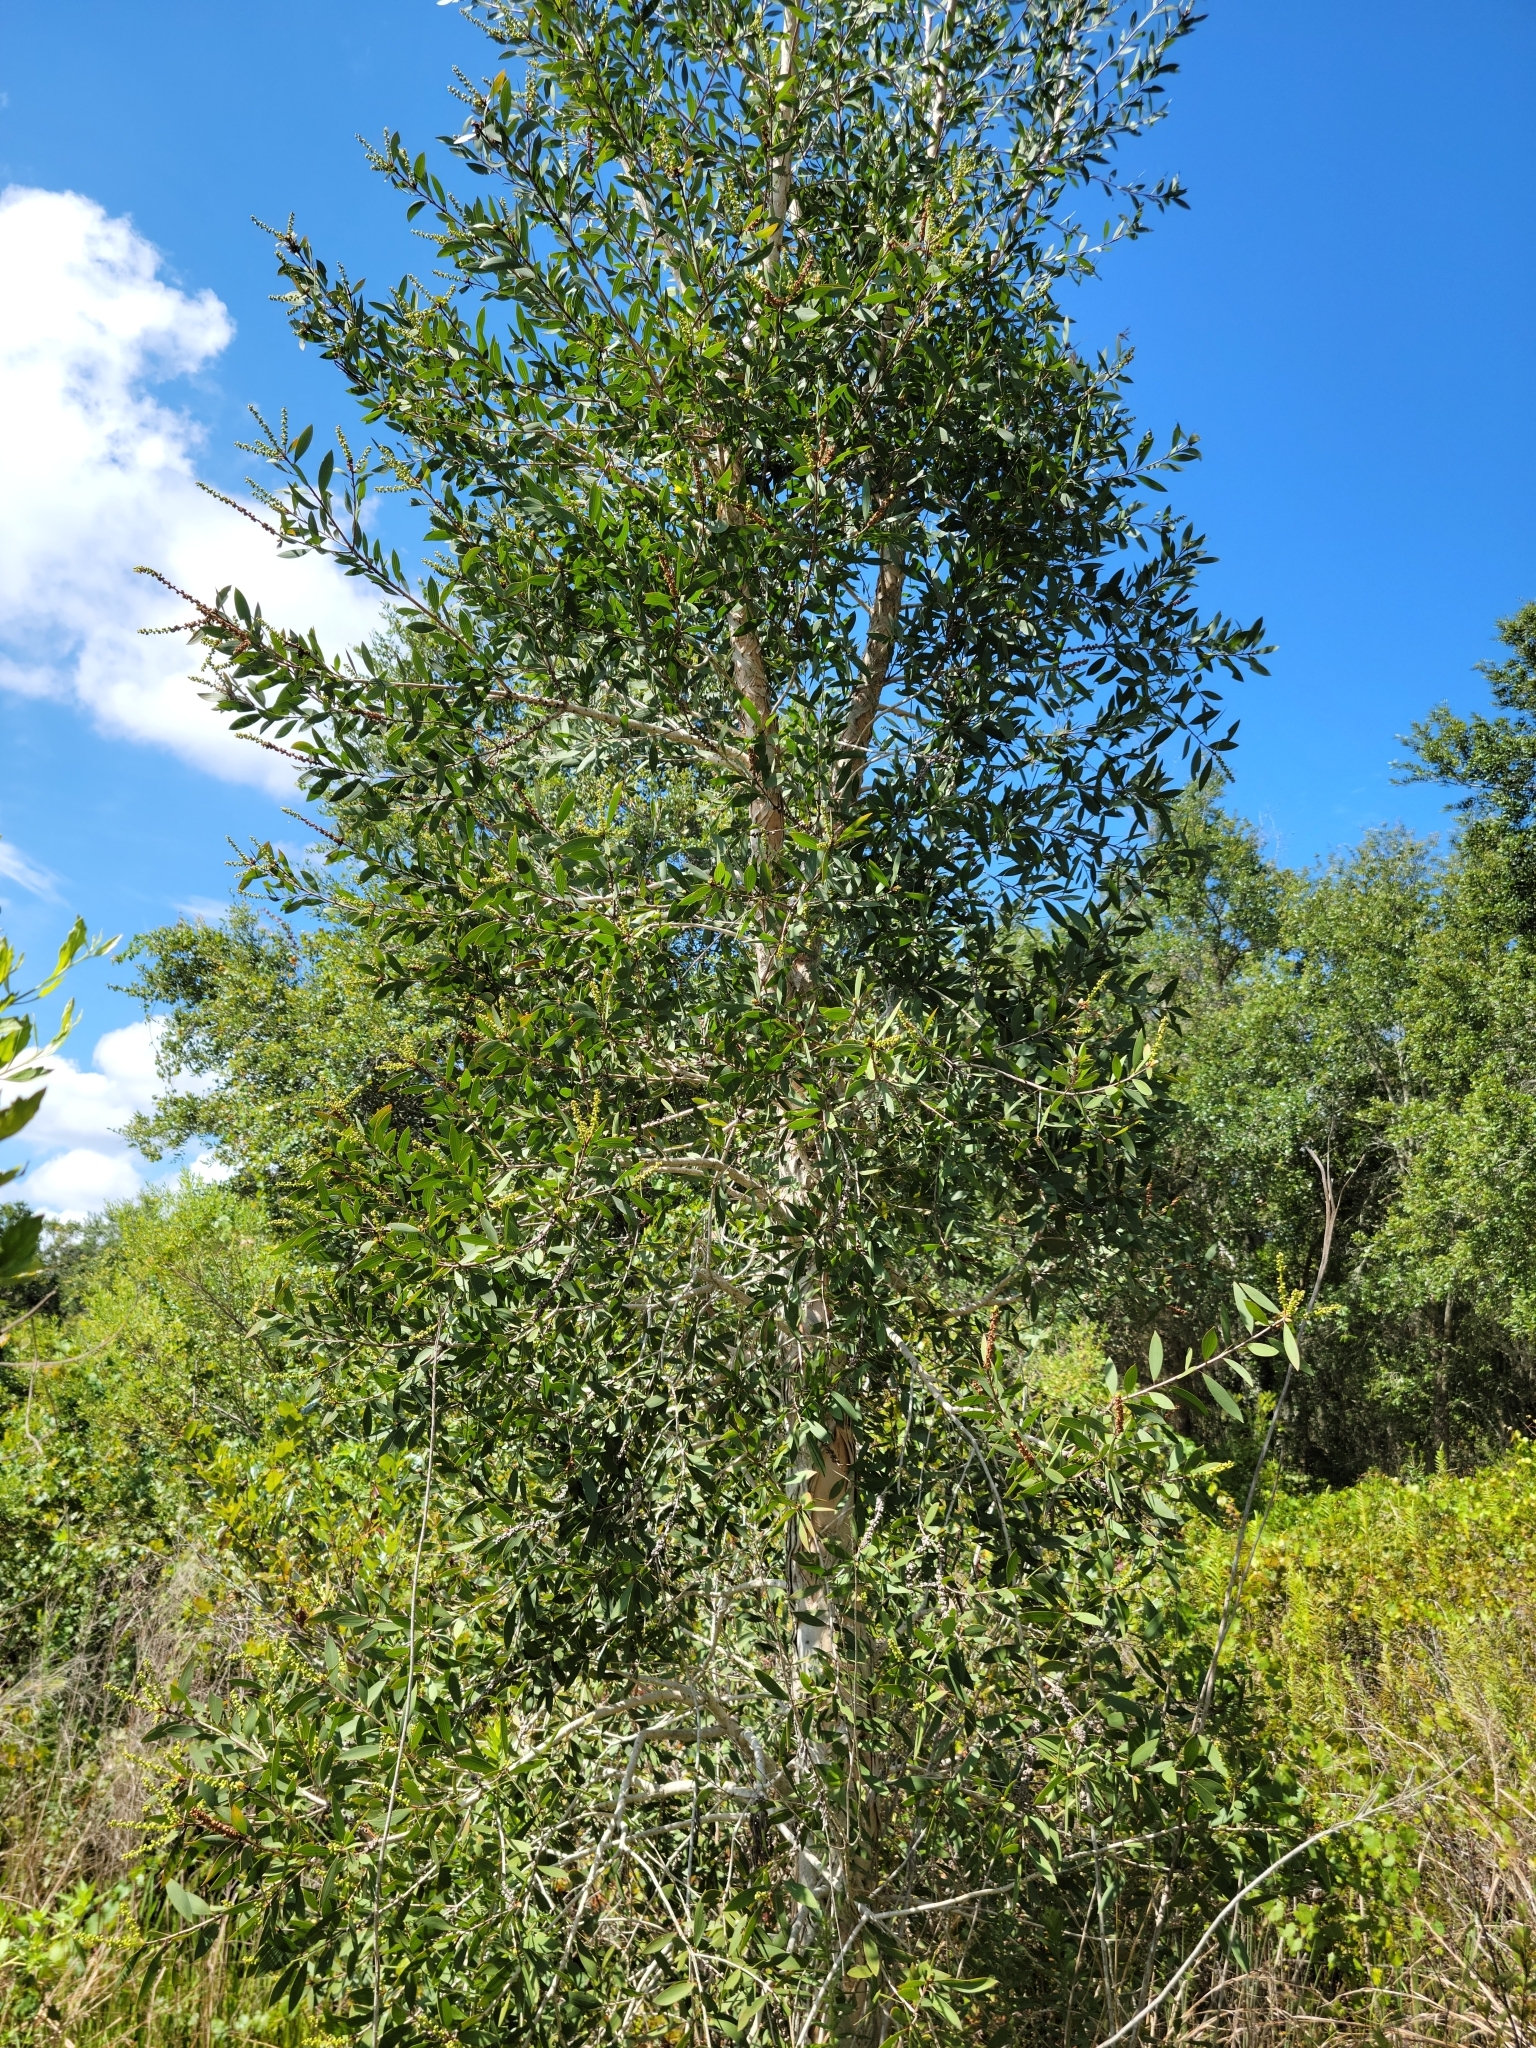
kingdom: Plantae
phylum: Tracheophyta
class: Magnoliopsida
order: Myrtales
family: Myrtaceae
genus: Melaleuca
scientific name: Melaleuca quinquenervia
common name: Punktree
